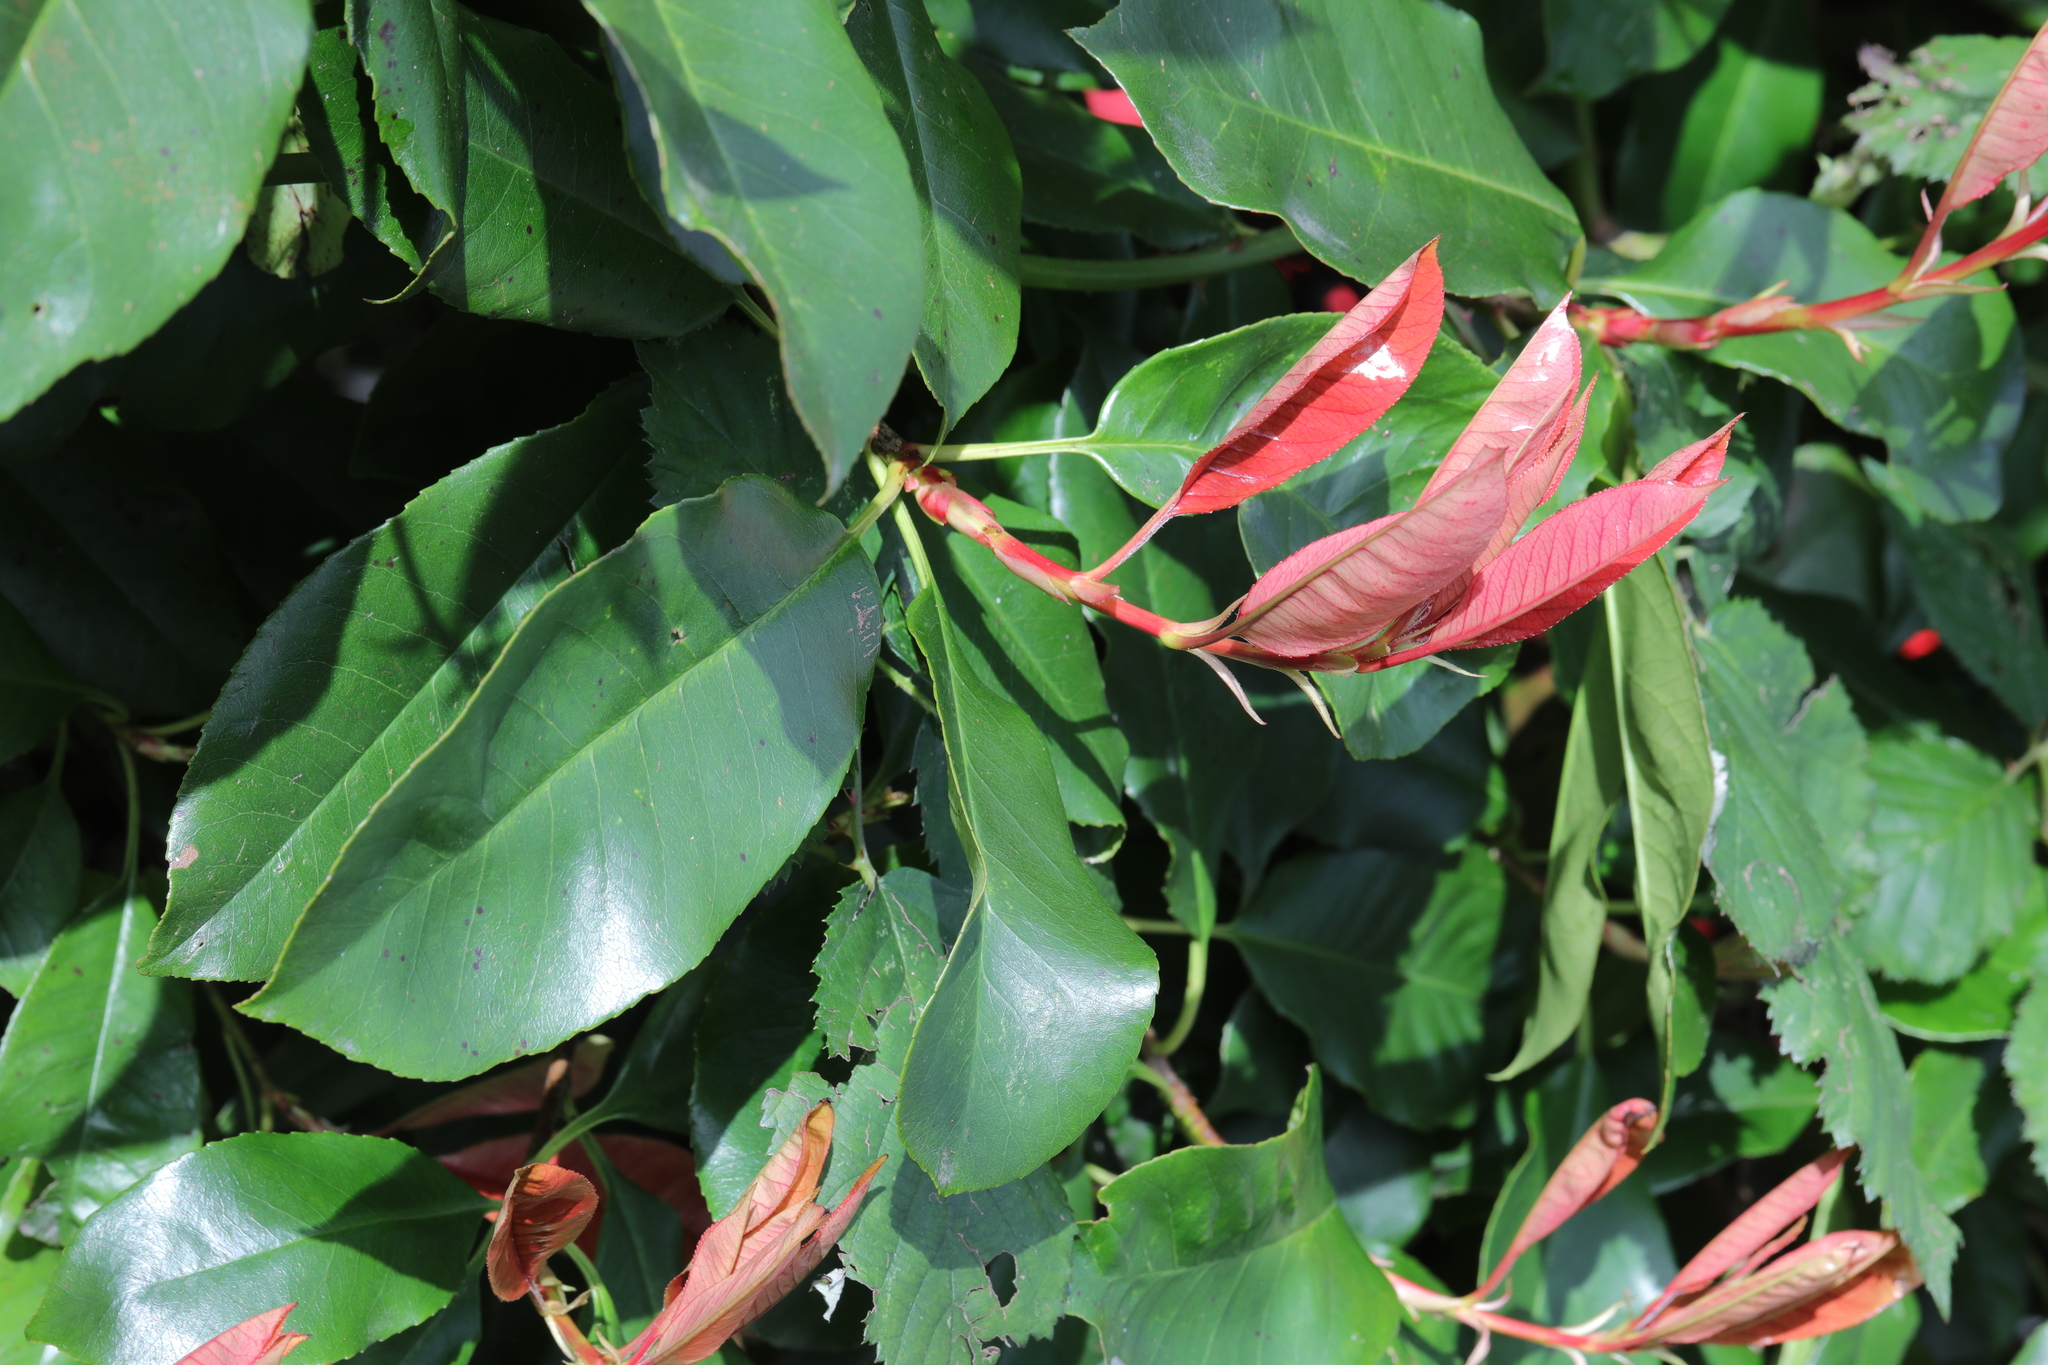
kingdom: Plantae
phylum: Tracheophyta
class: Magnoliopsida
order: Rosales
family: Rosaceae
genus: Photinia
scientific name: Photinia fraseri
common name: Fraser's photinia
